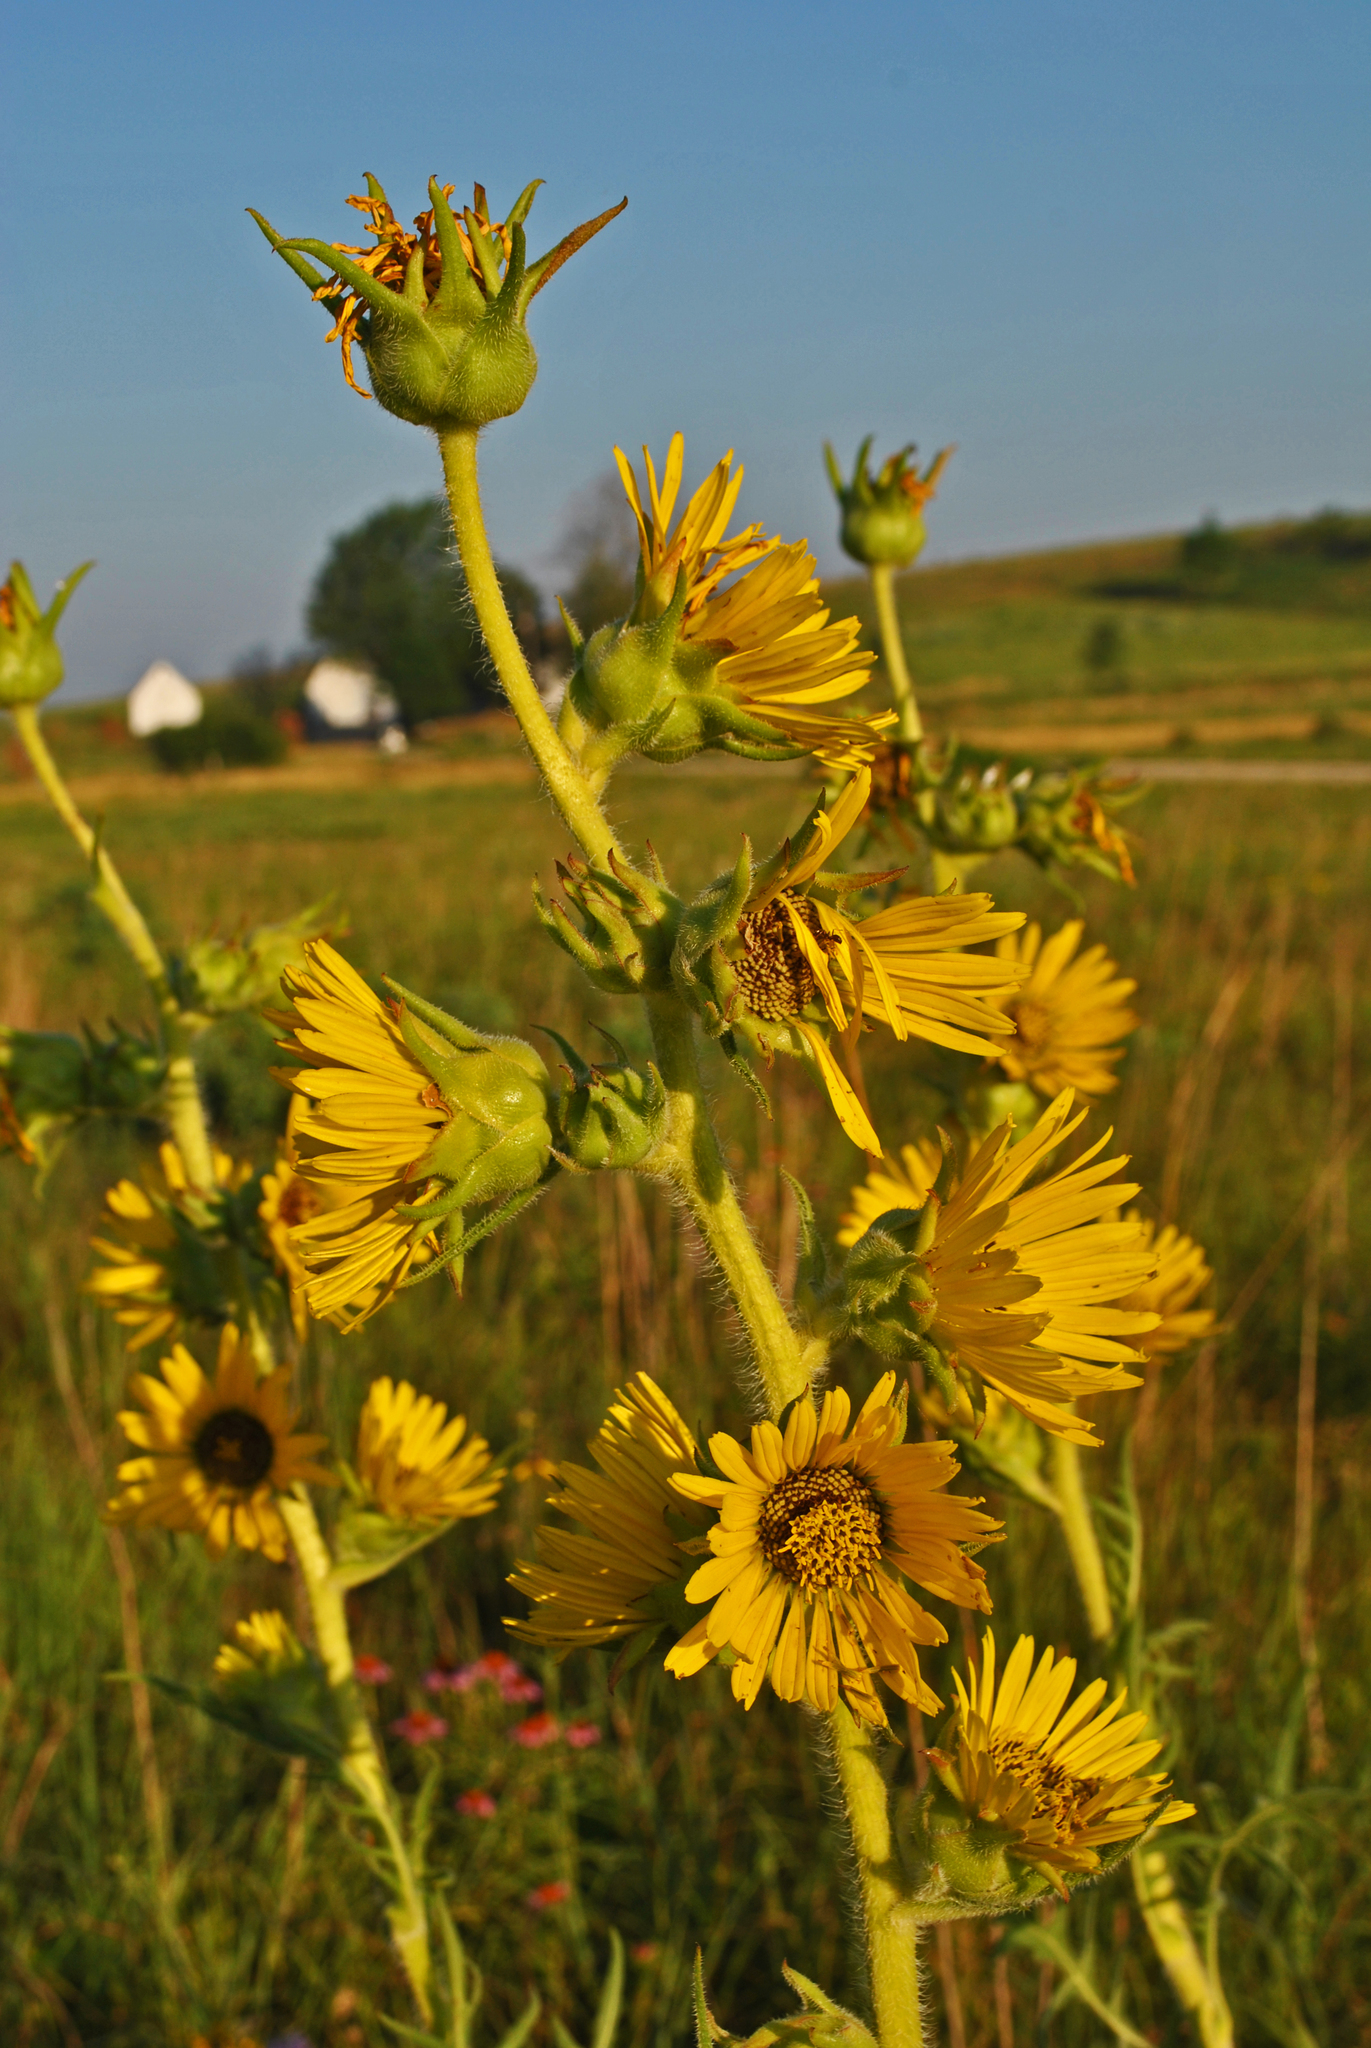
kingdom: Plantae
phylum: Tracheophyta
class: Magnoliopsida
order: Asterales
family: Asteraceae
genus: Silphium
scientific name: Silphium laciniatum
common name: Polarplant
